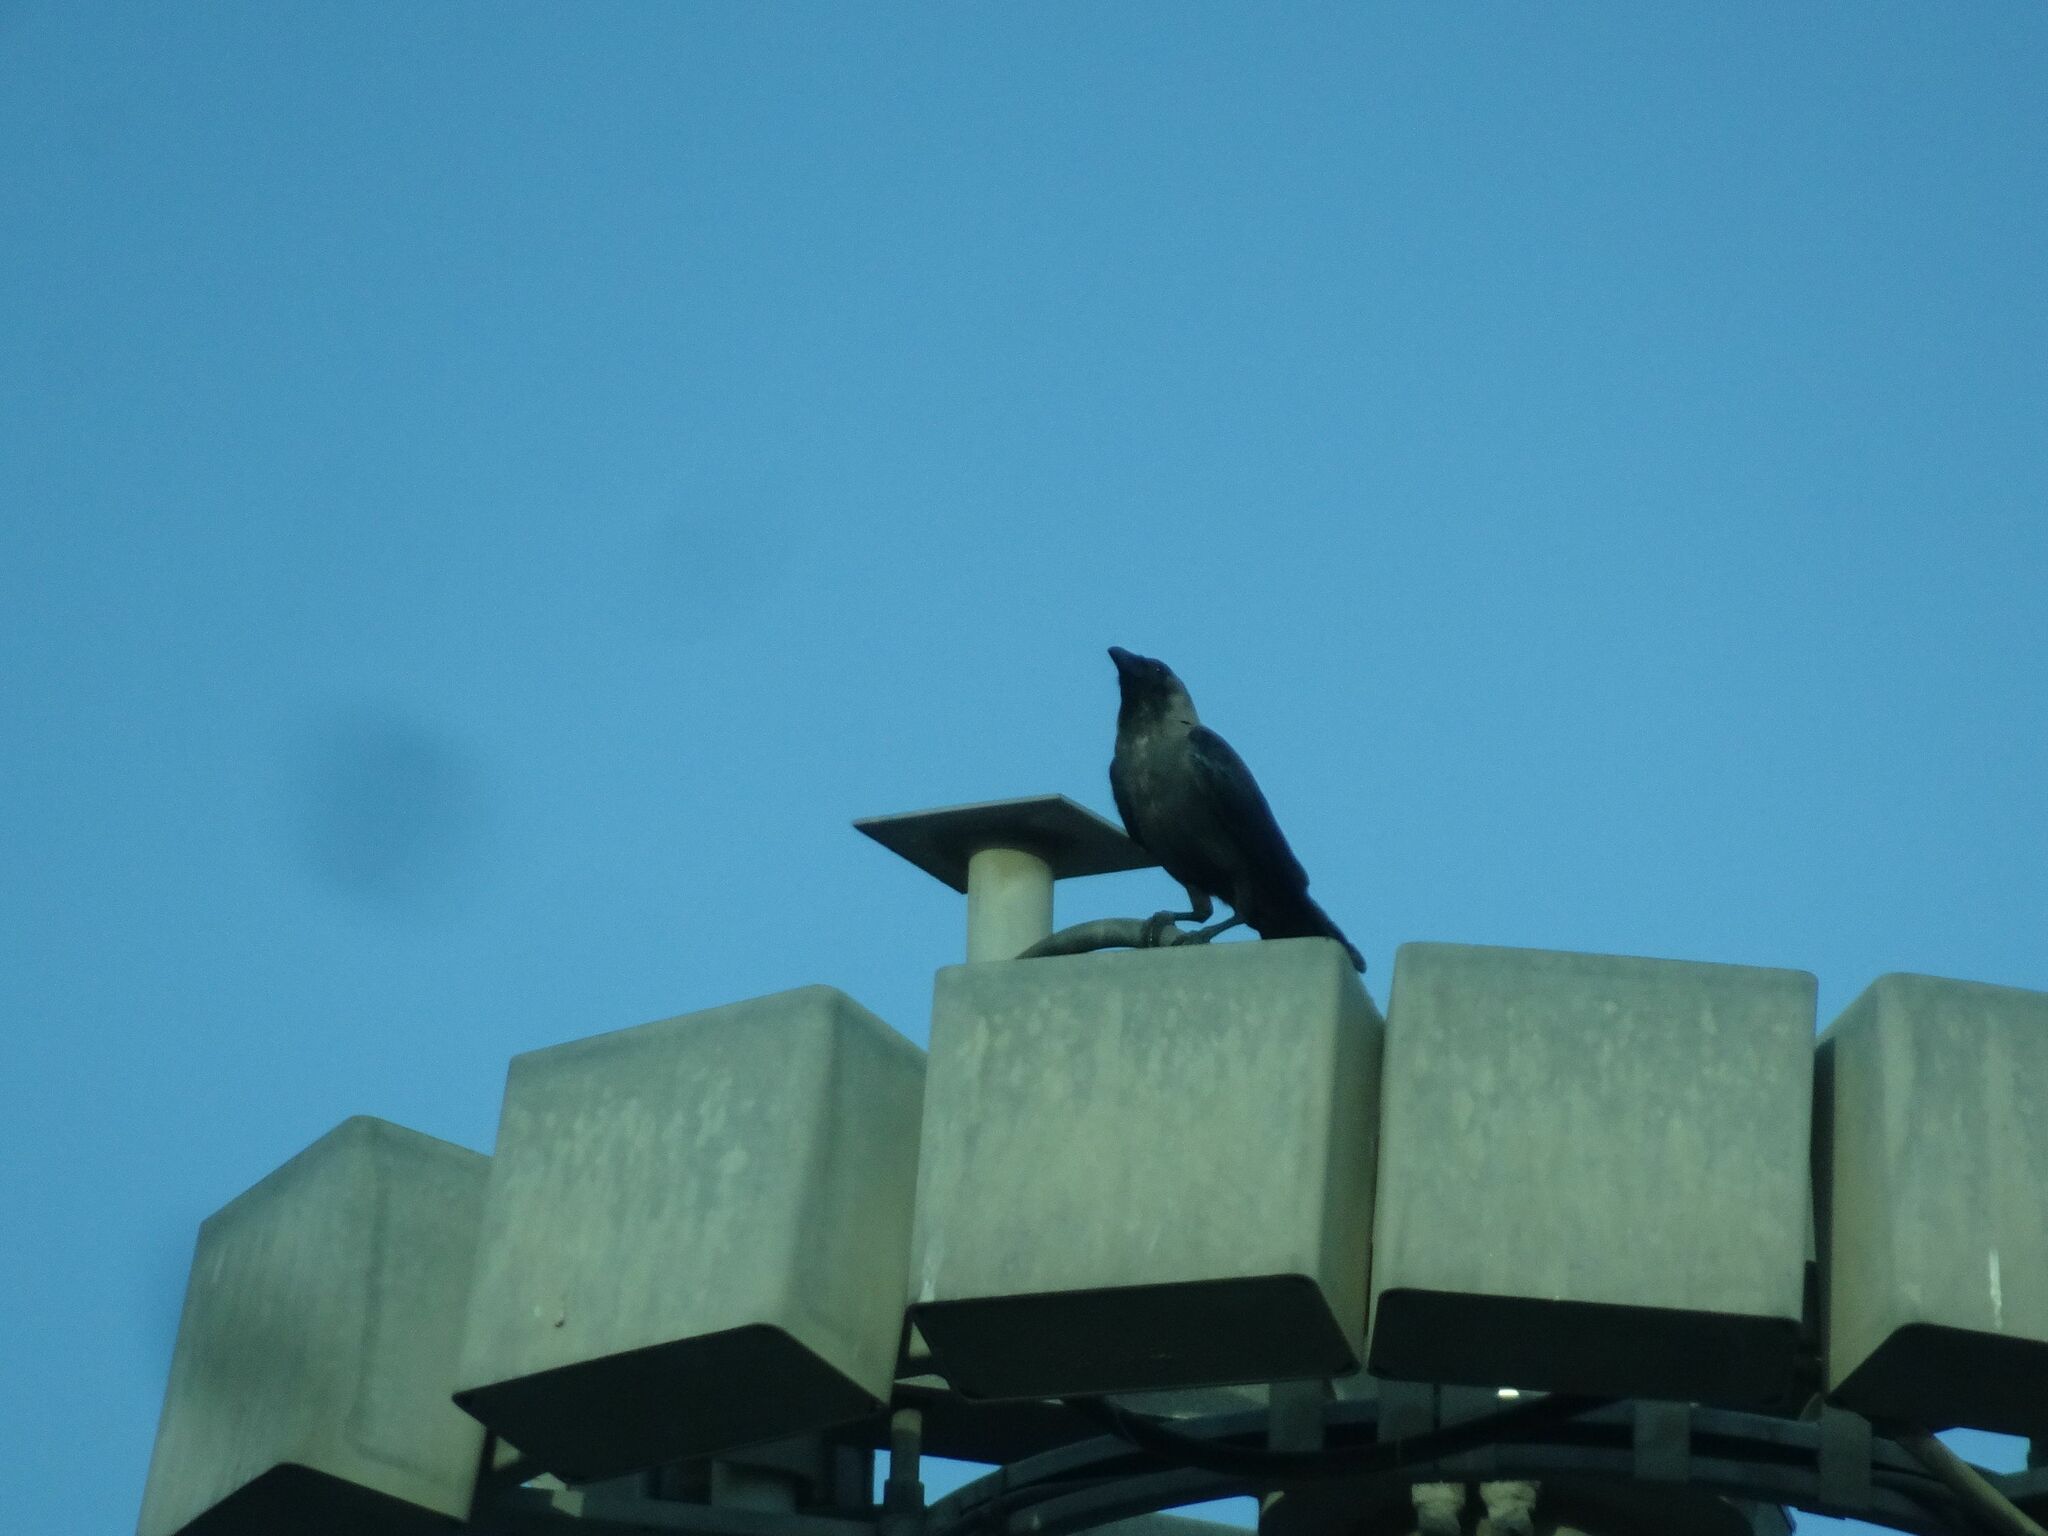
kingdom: Animalia
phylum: Chordata
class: Aves
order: Passeriformes
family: Corvidae
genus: Corvus
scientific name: Corvus splendens
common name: House crow
